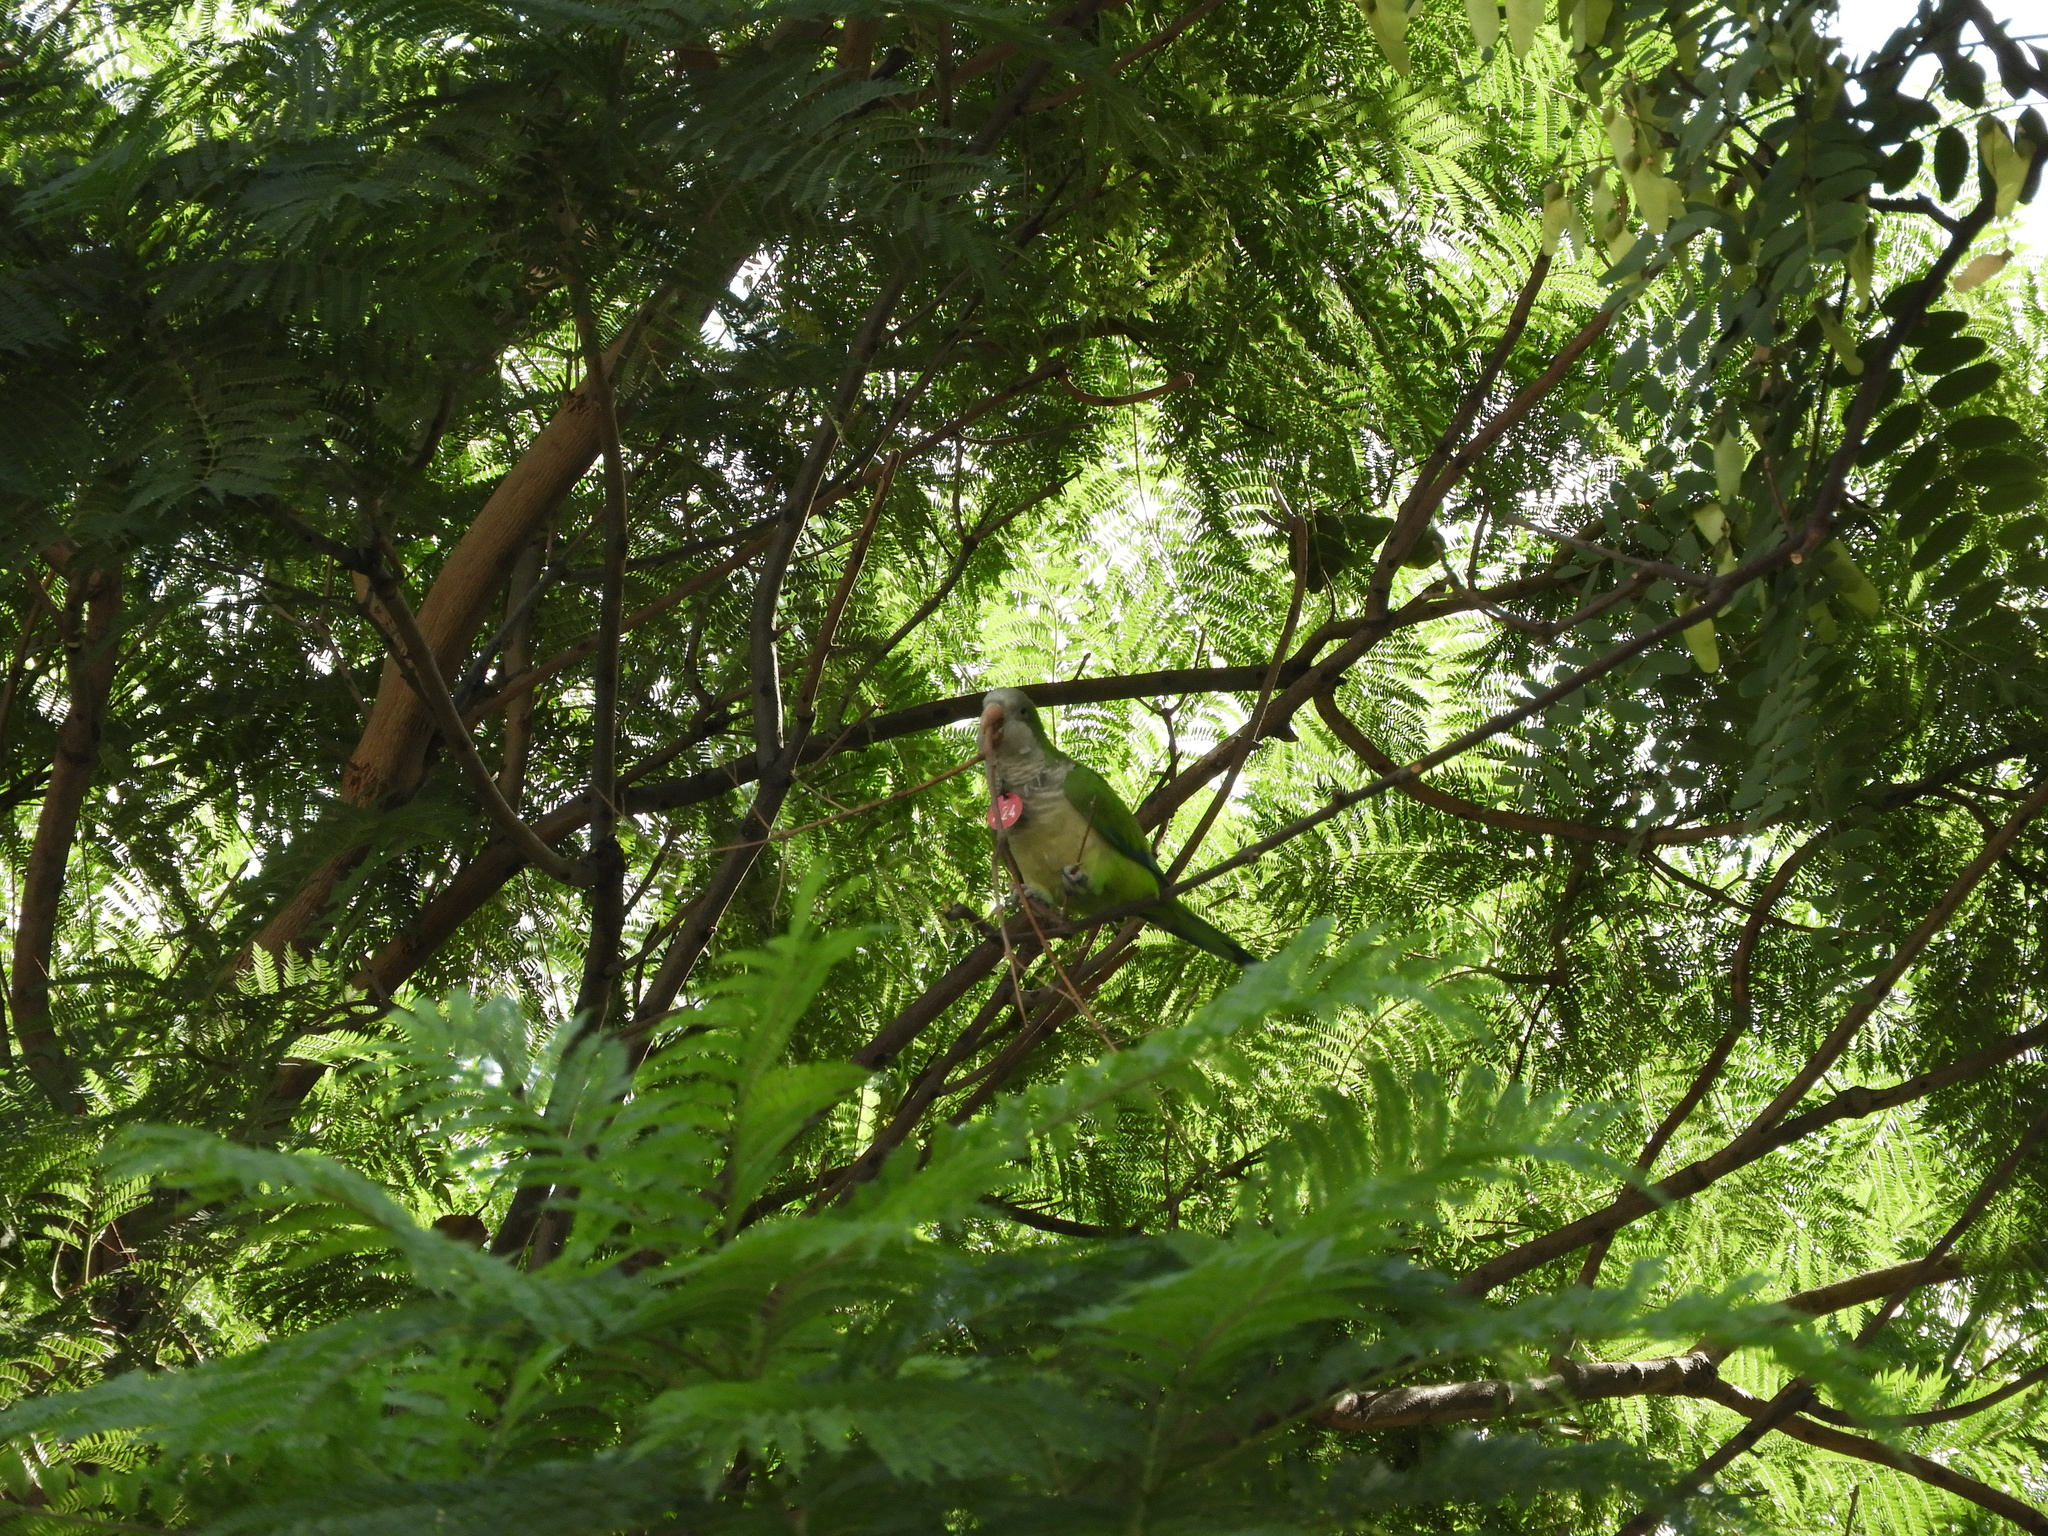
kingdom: Animalia
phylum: Chordata
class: Aves
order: Psittaciformes
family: Psittacidae
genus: Myiopsitta
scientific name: Myiopsitta monachus
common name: Monk parakeet
